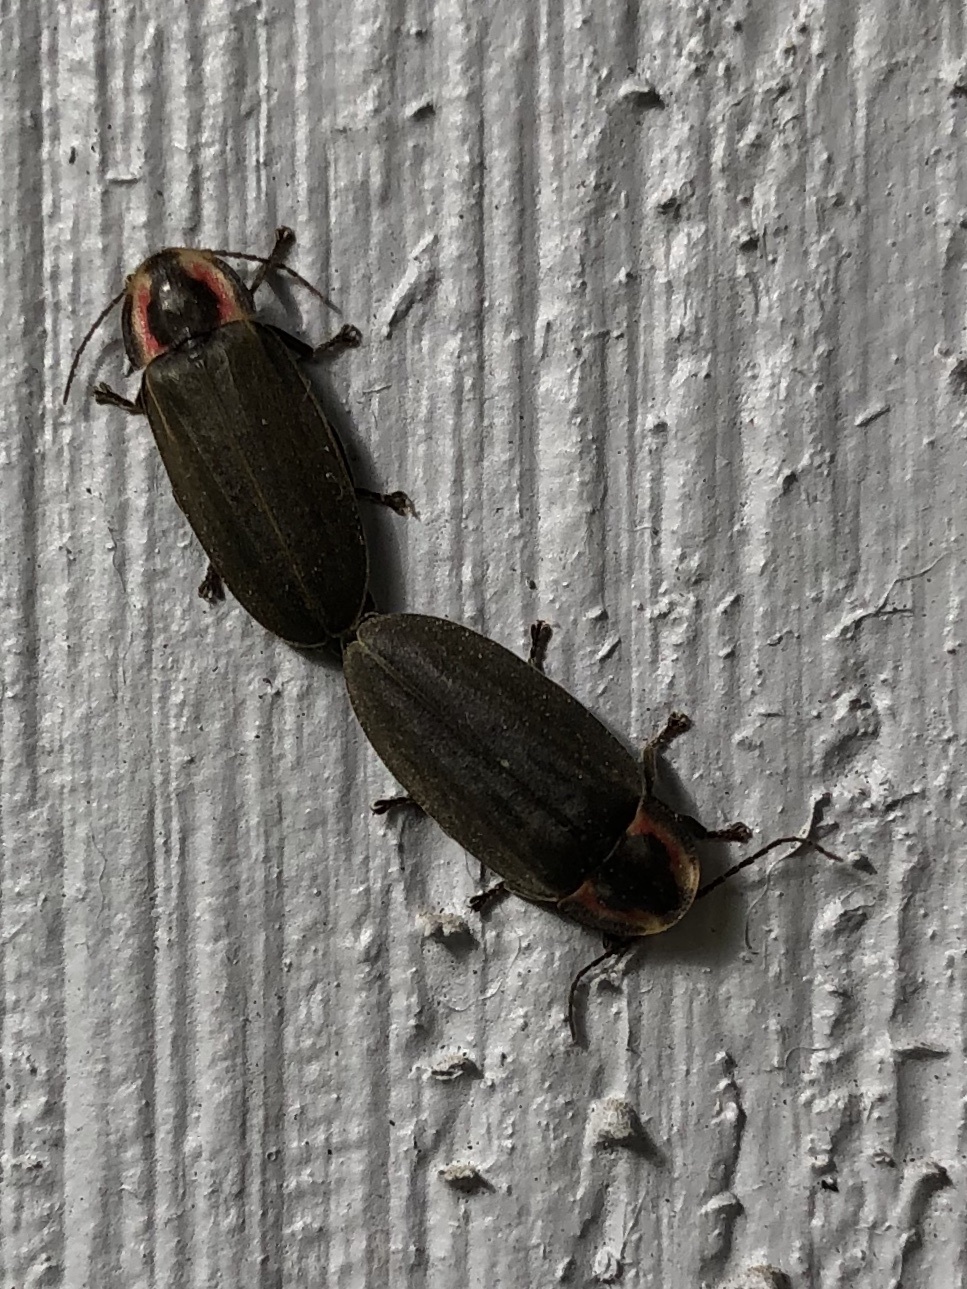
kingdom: Animalia
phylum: Arthropoda
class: Insecta
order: Coleoptera
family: Lampyridae
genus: Photinus
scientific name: Photinus corrusca
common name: Winter firefly
